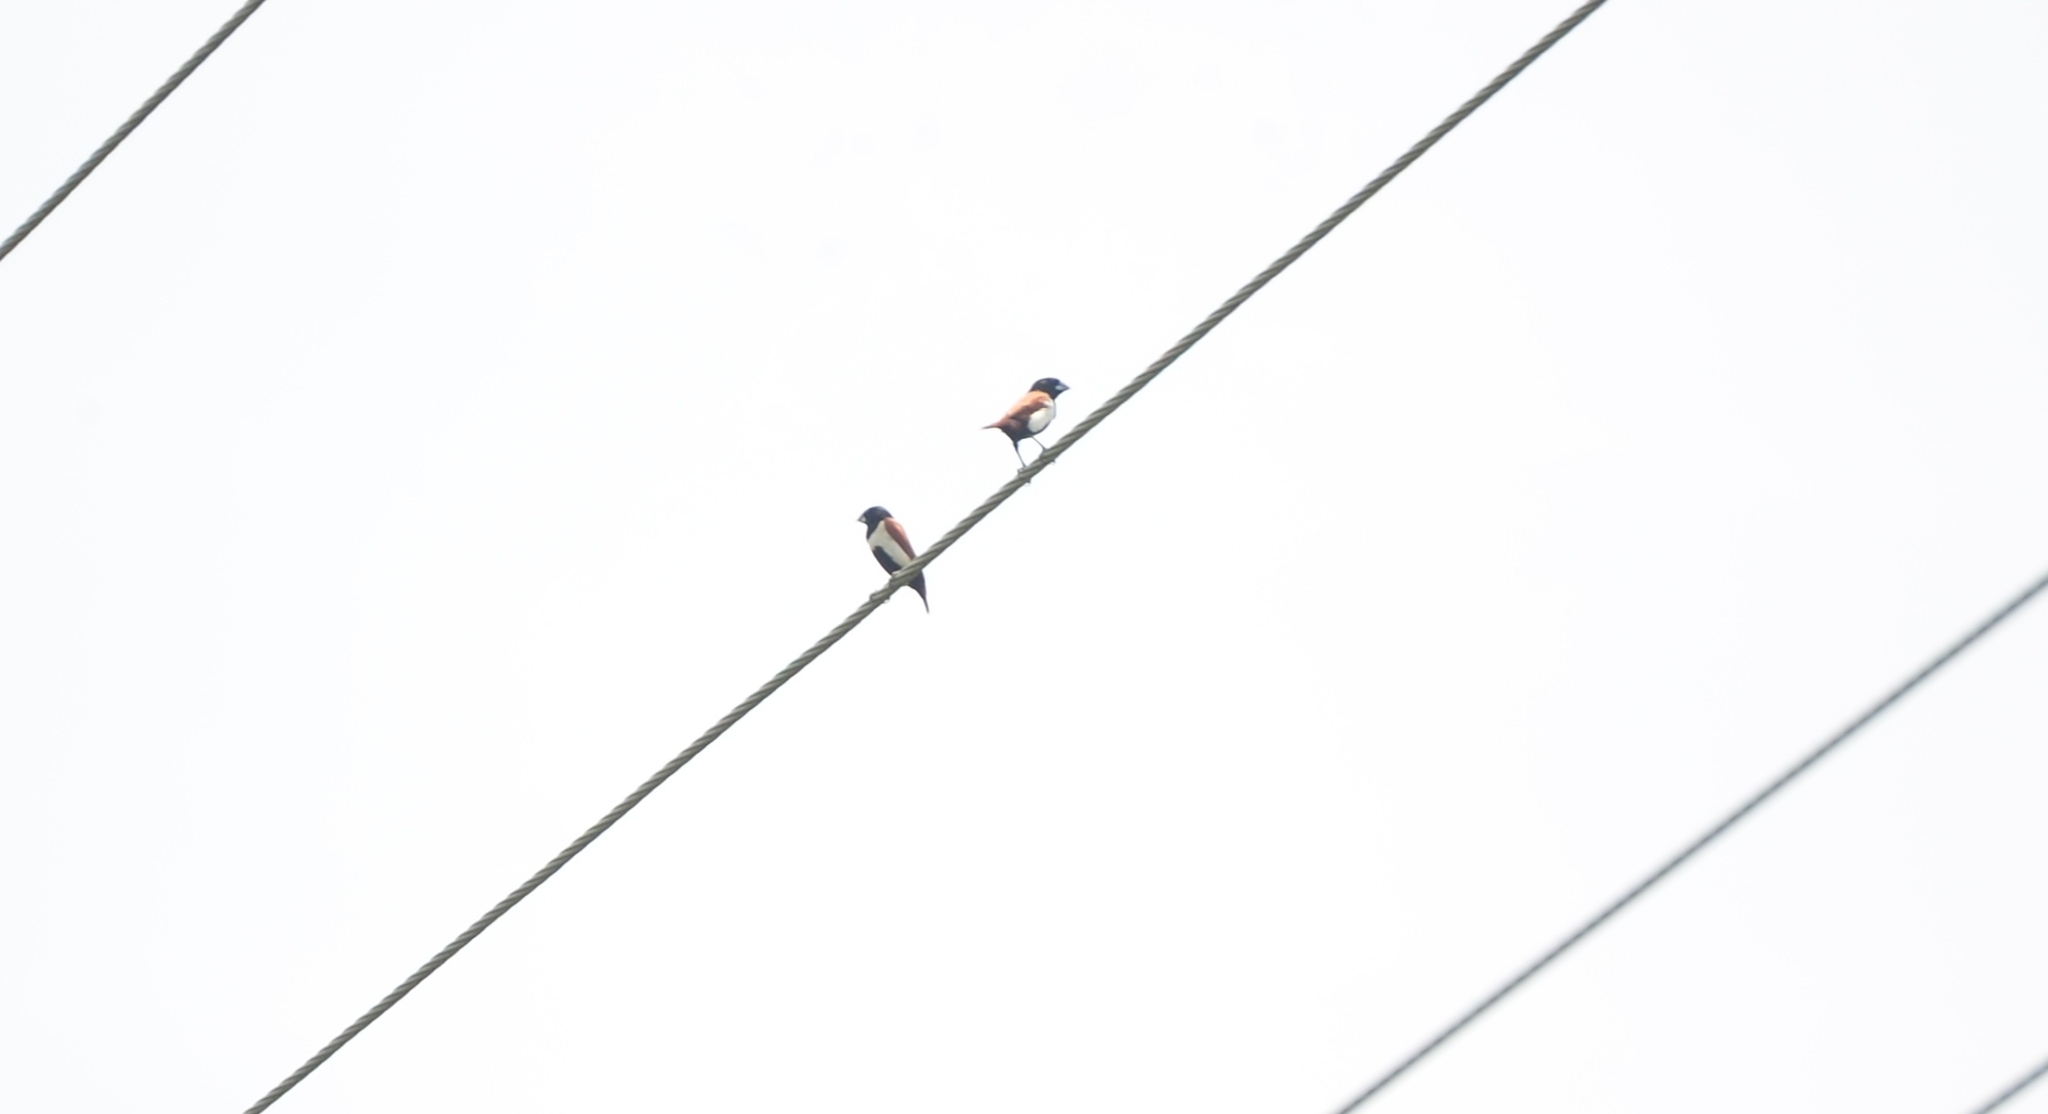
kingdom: Animalia
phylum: Chordata
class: Aves
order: Passeriformes
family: Estrildidae
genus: Lonchura
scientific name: Lonchura malacca
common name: Tricolored munia
